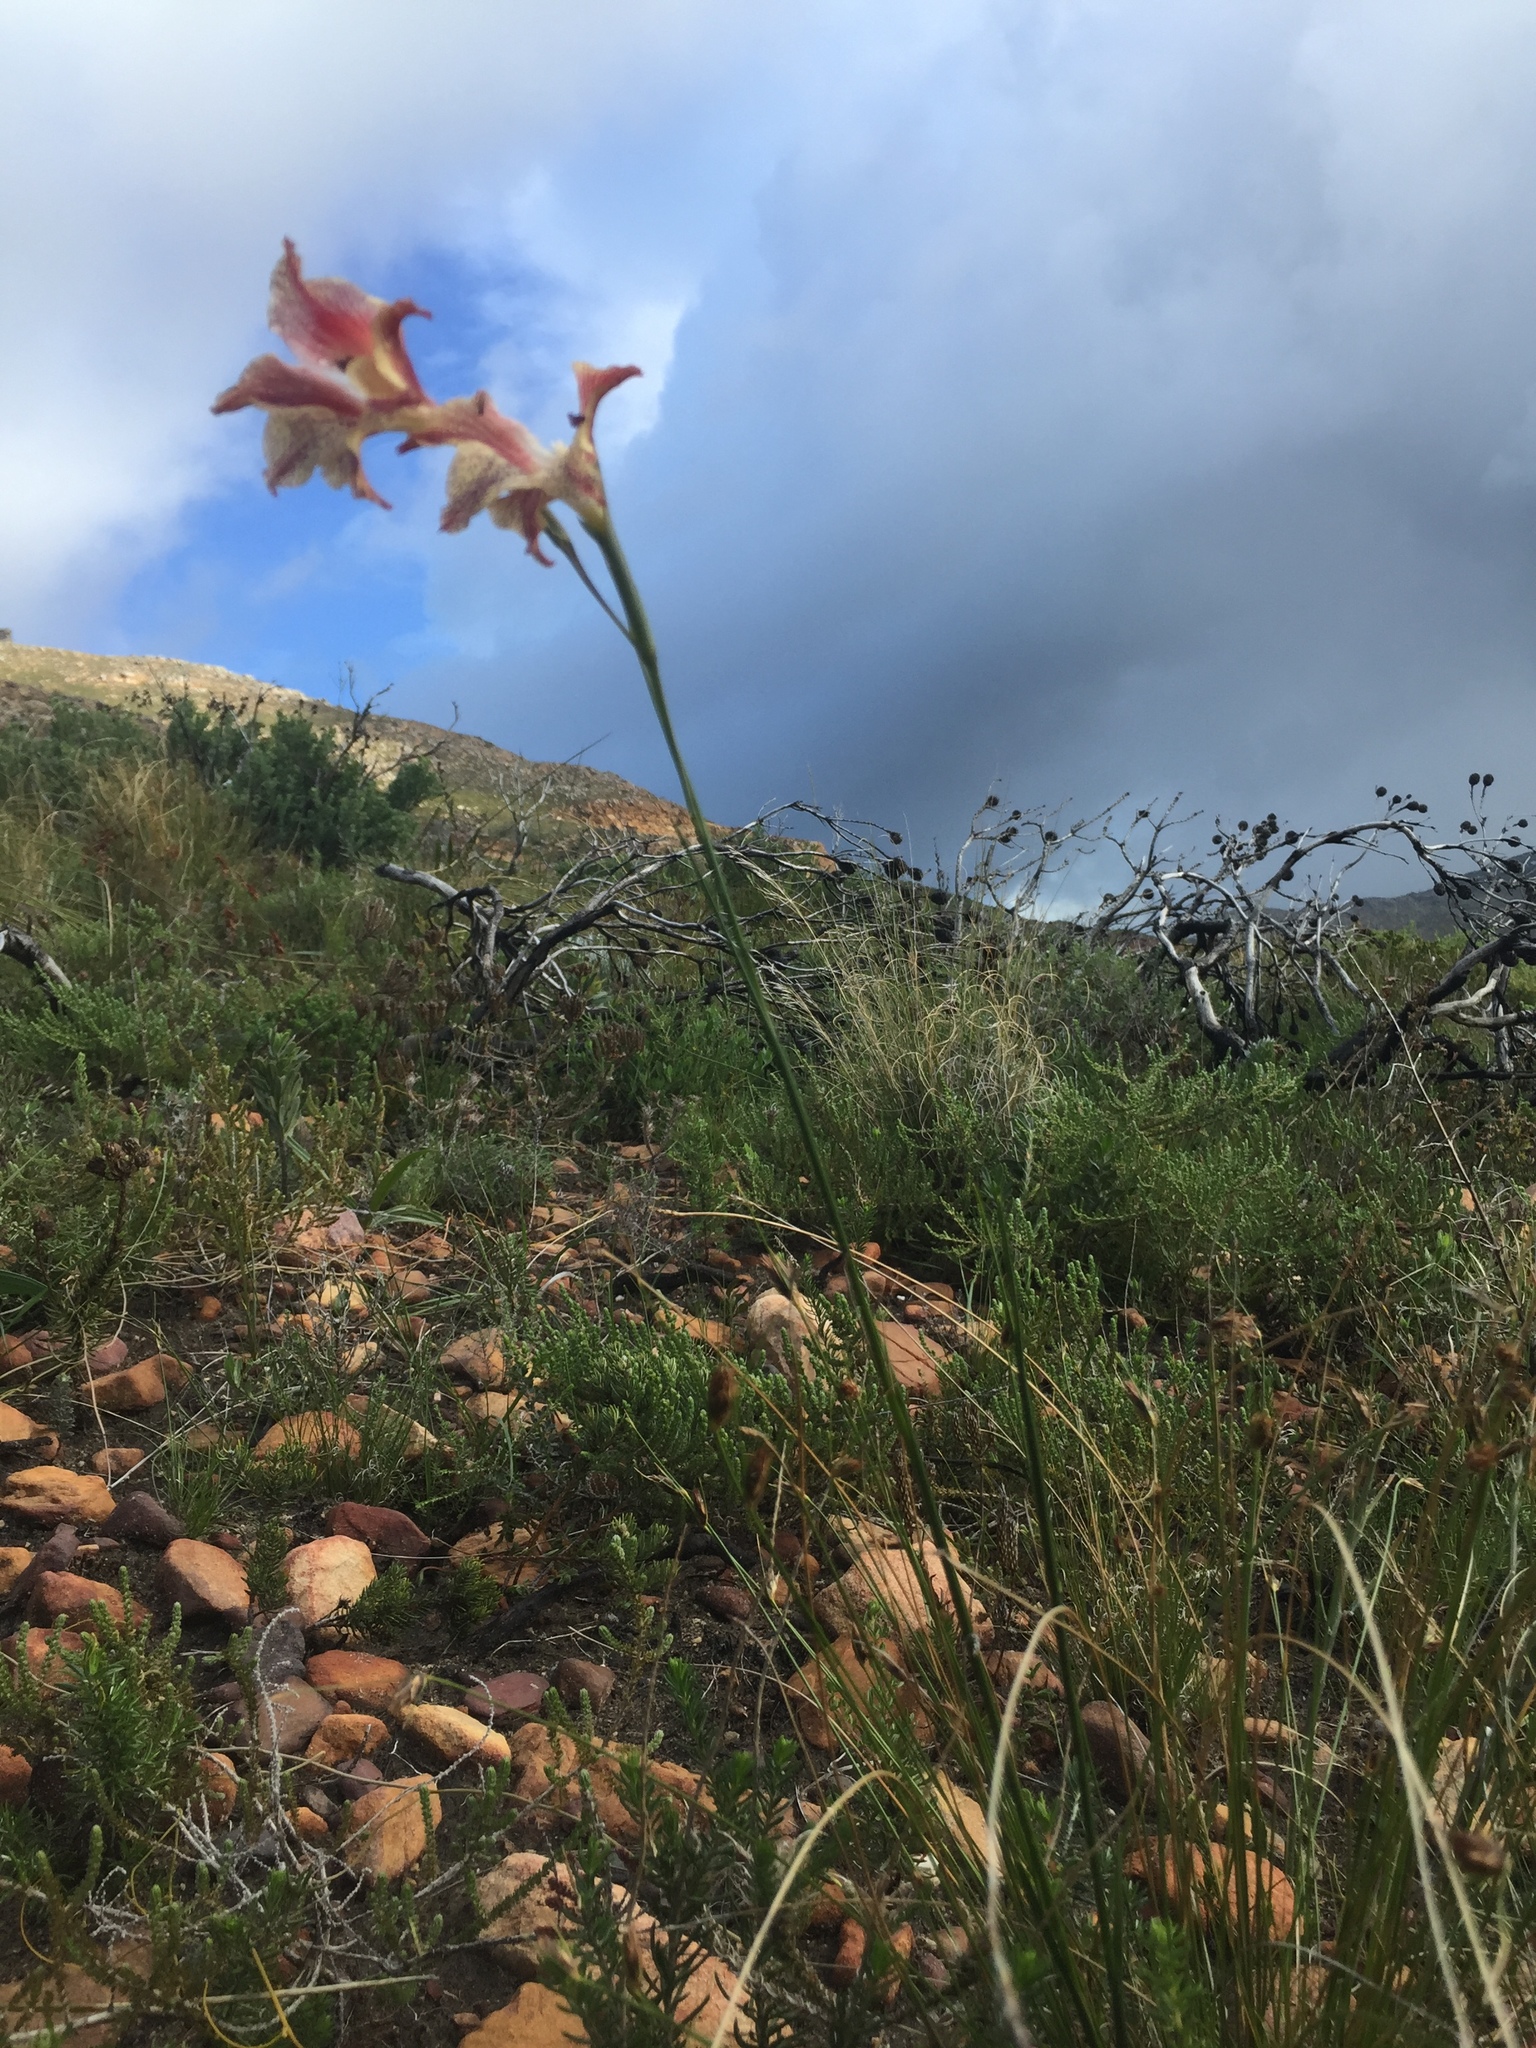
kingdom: Plantae
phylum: Tracheophyta
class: Liliopsida
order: Asparagales
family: Iridaceae
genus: Gladiolus
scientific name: Gladiolus maculatus
